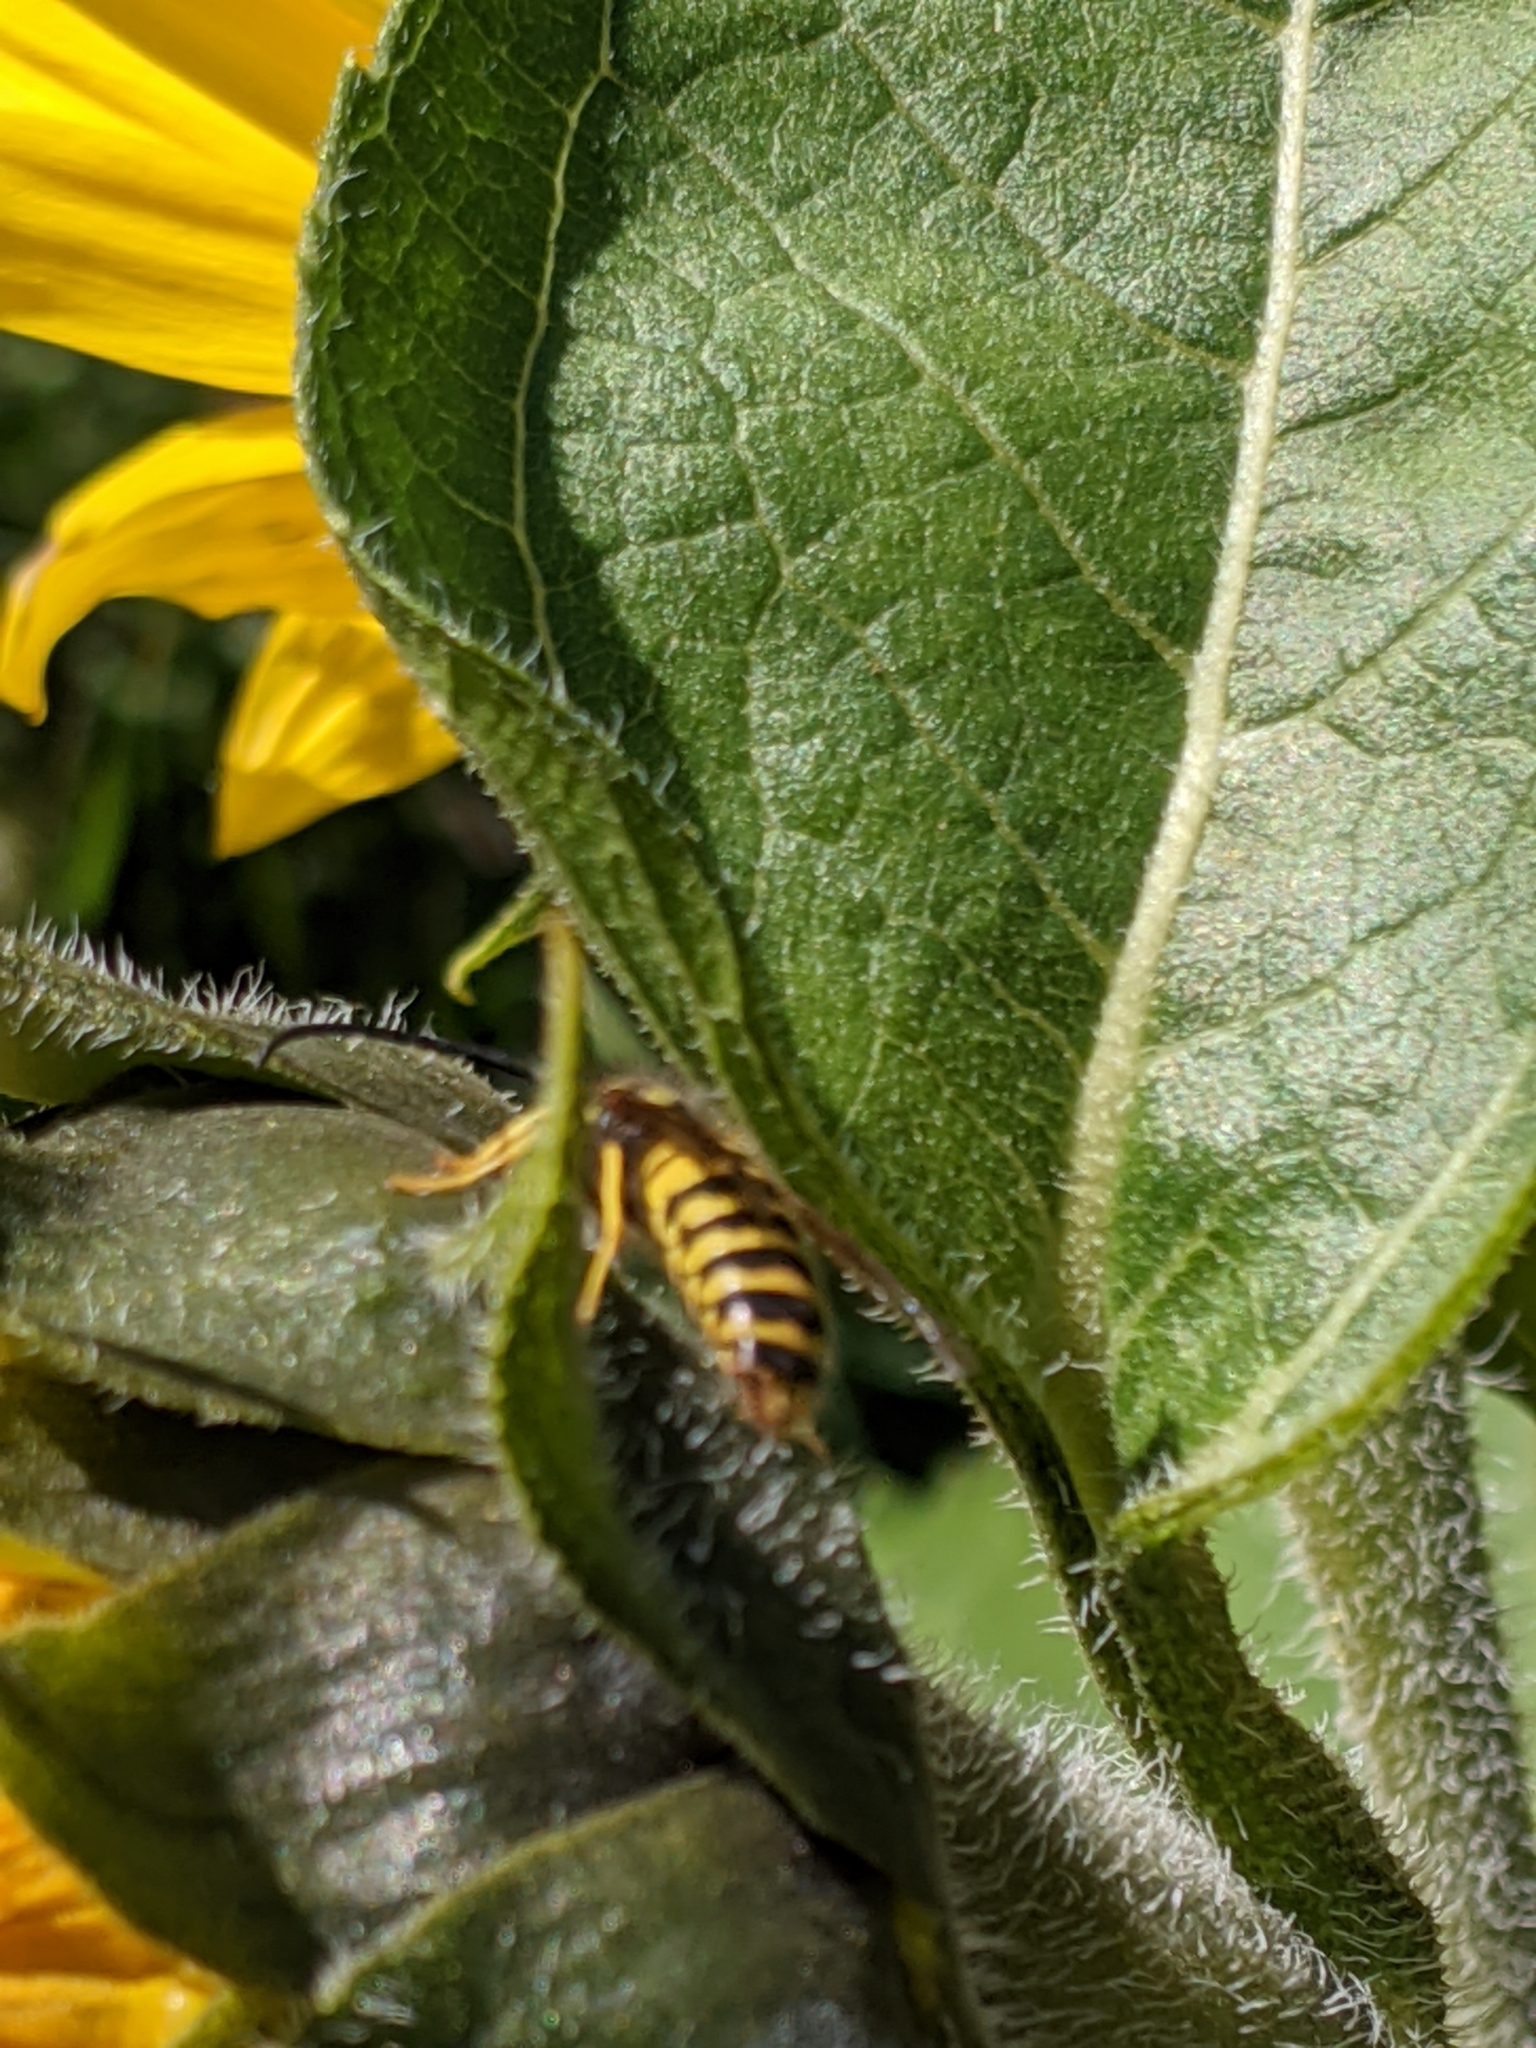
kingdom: Animalia
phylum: Arthropoda
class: Insecta
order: Hymenoptera
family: Vespidae
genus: Vespula
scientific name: Vespula
